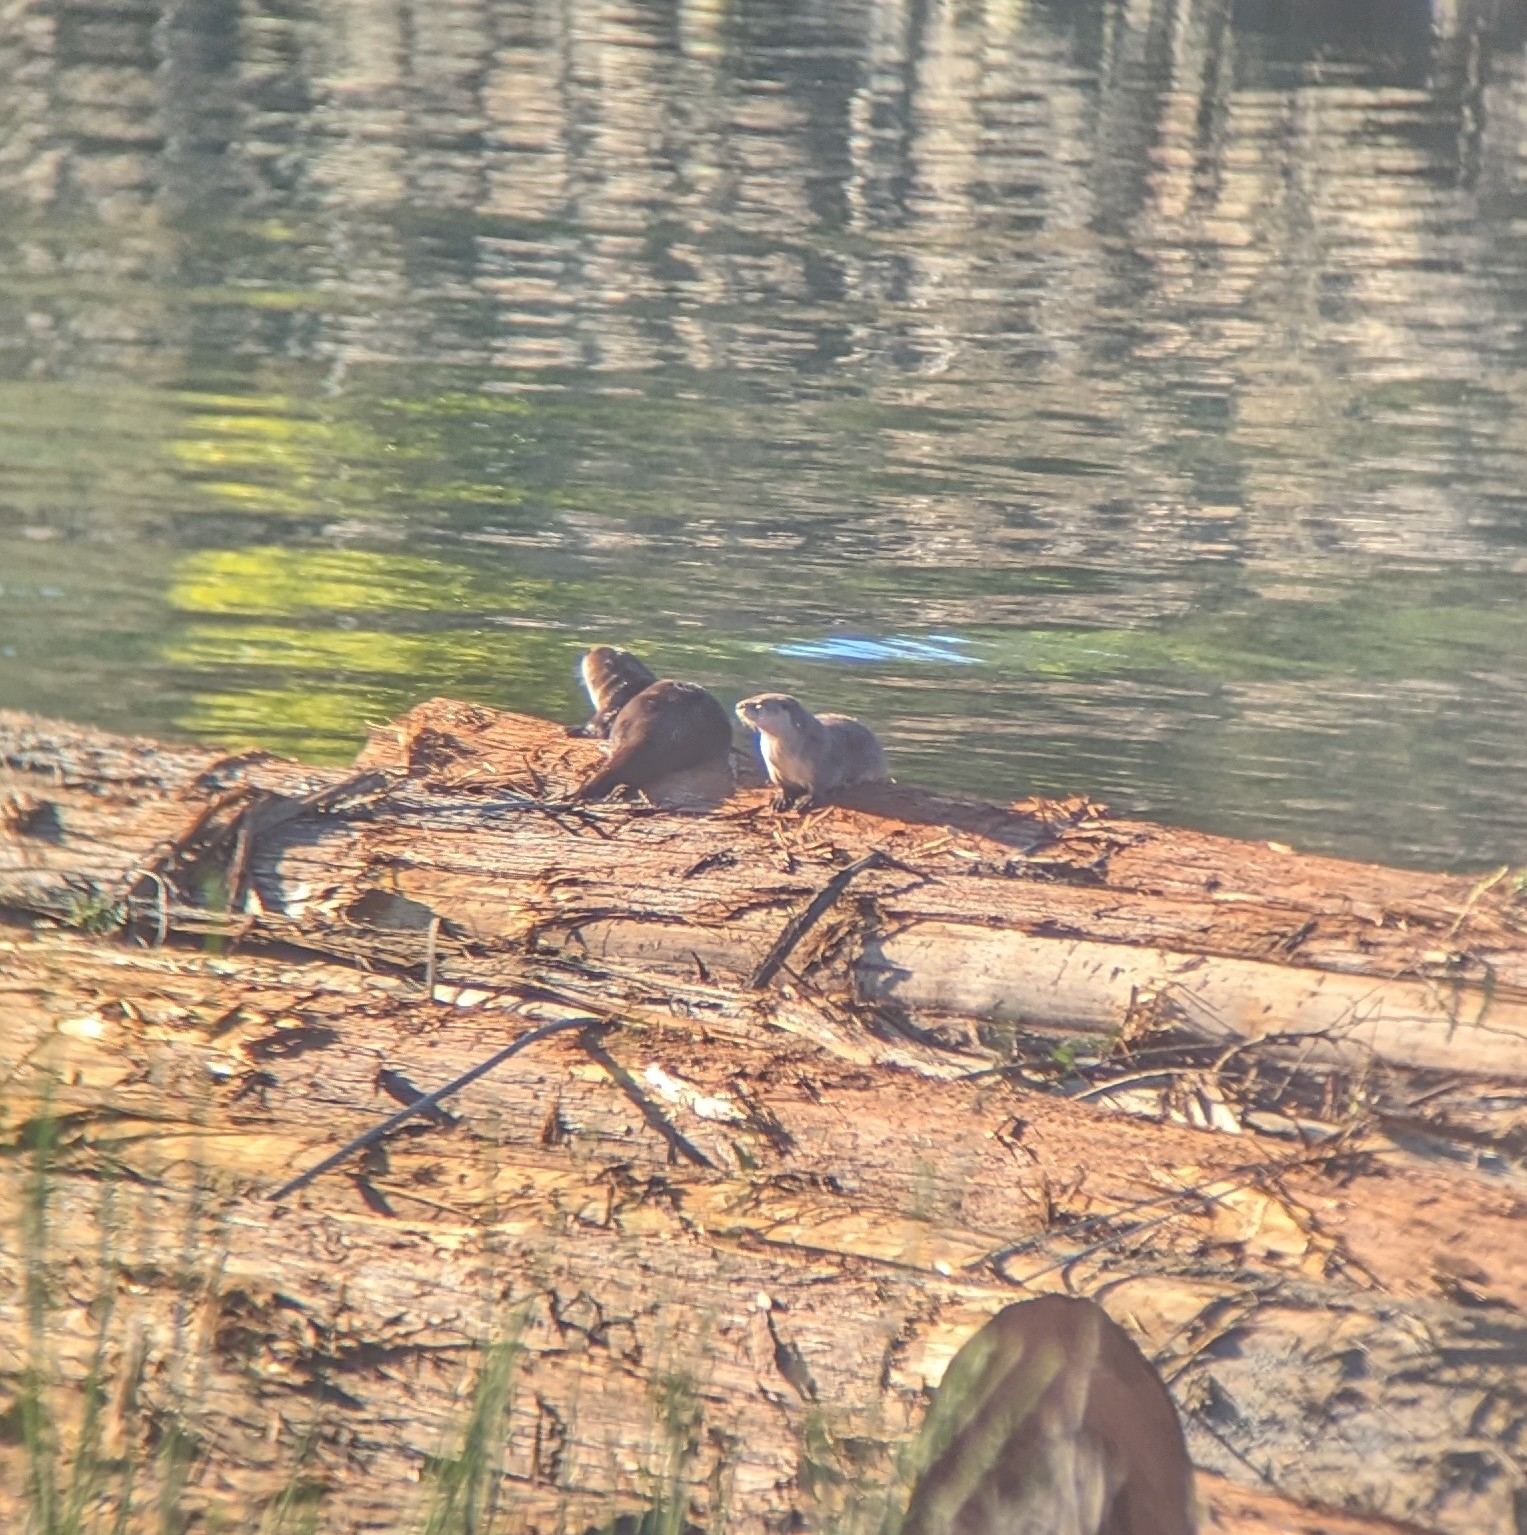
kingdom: Animalia
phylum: Chordata
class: Mammalia
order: Carnivora
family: Mustelidae
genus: Lontra
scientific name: Lontra canadensis
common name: North american river otter
